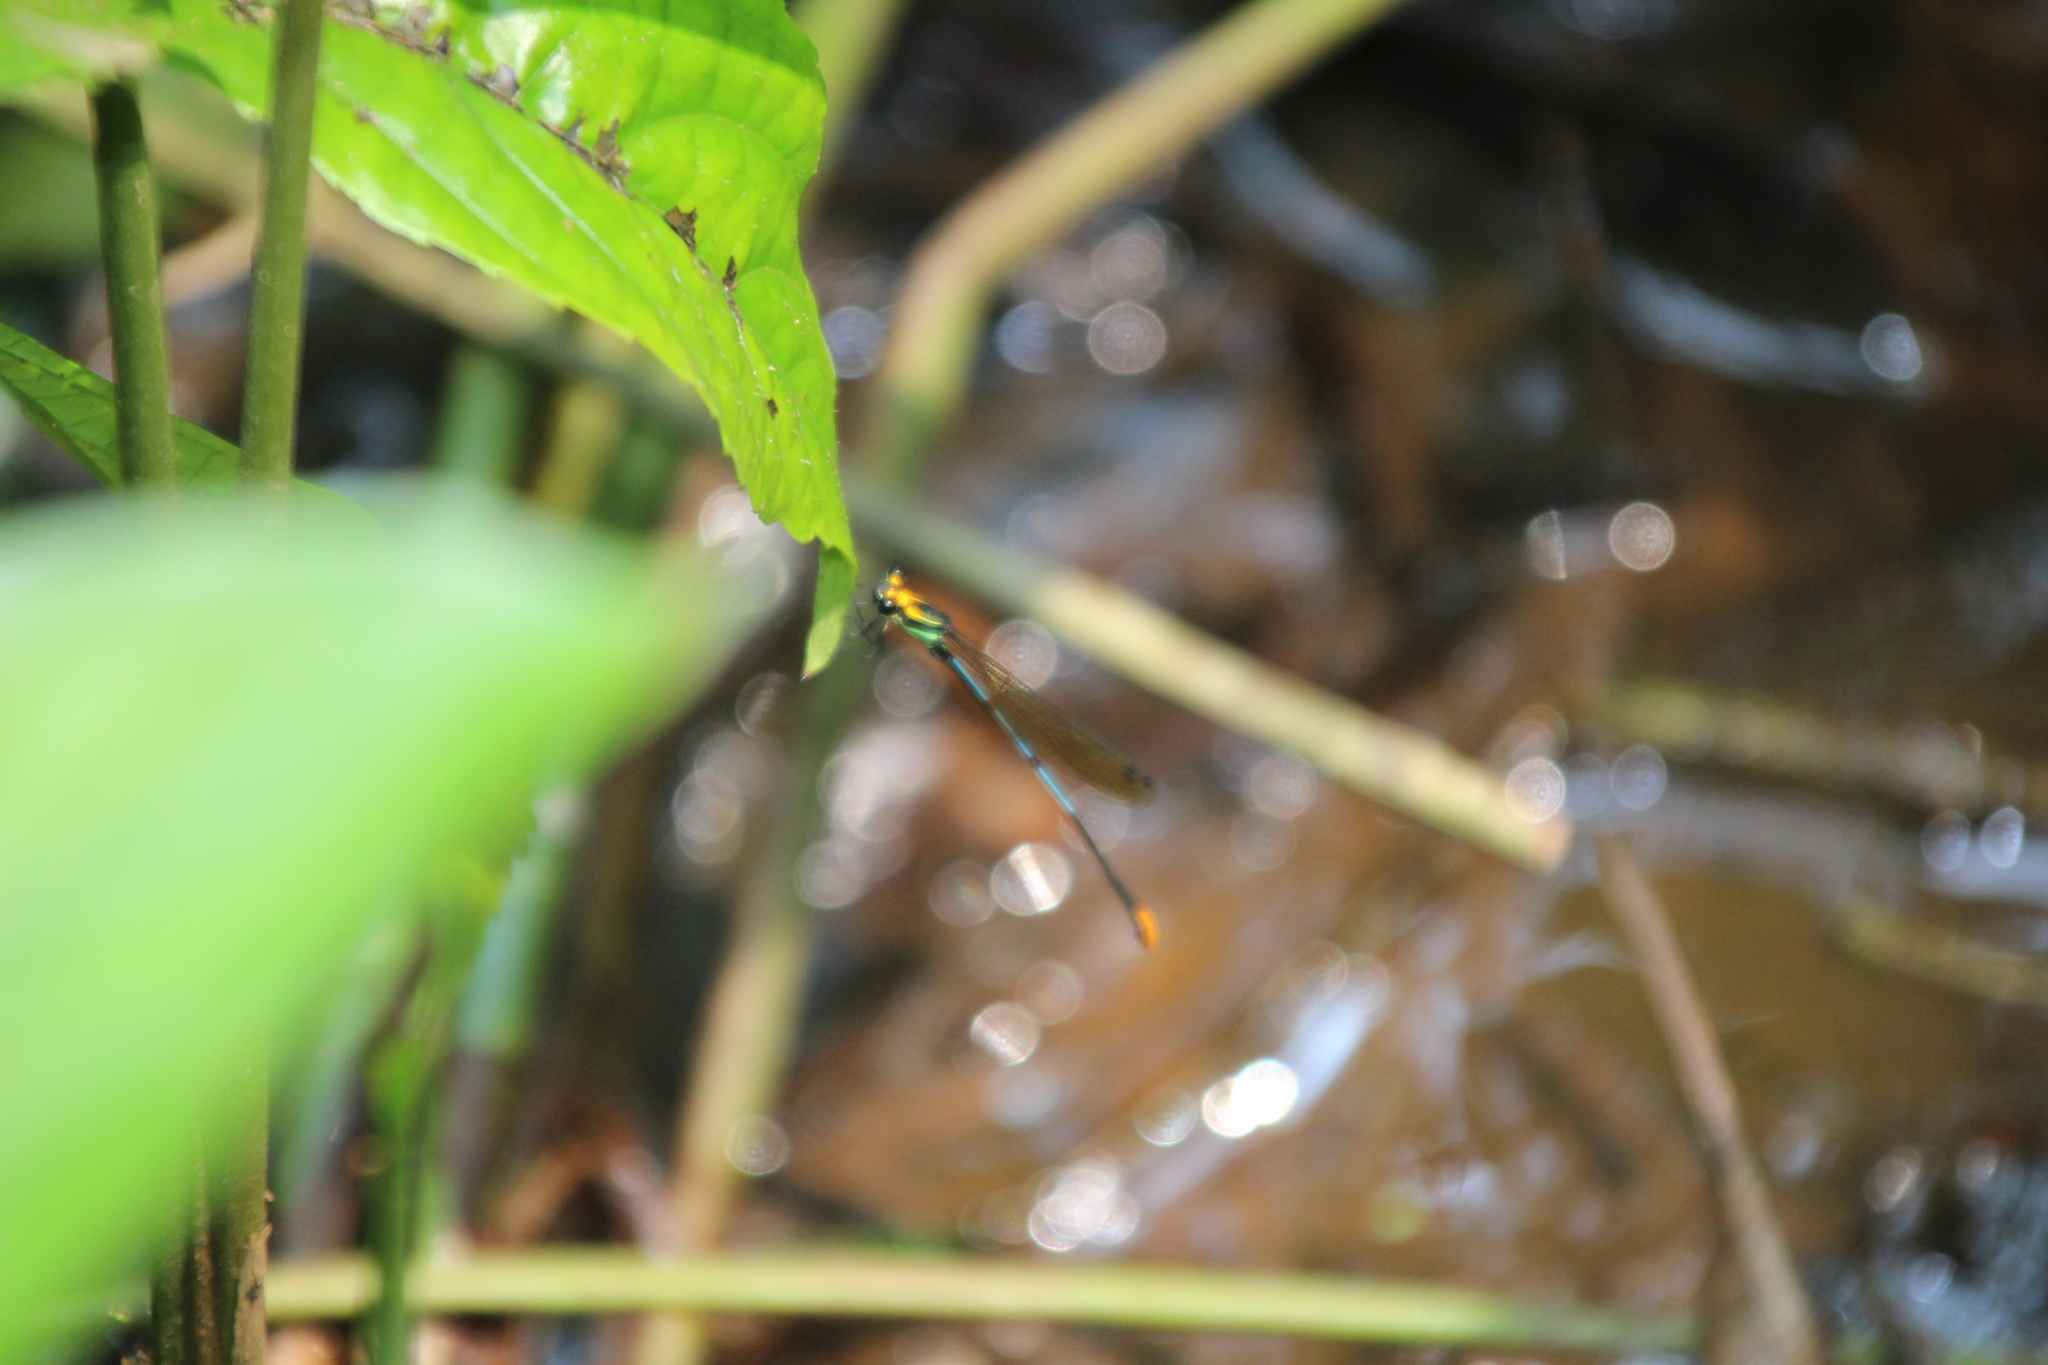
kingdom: Animalia
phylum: Arthropoda
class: Insecta
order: Odonata
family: Platycnemididae
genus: Allocnemis
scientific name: Allocnemis nigripes
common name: Rainbow yellowwing
